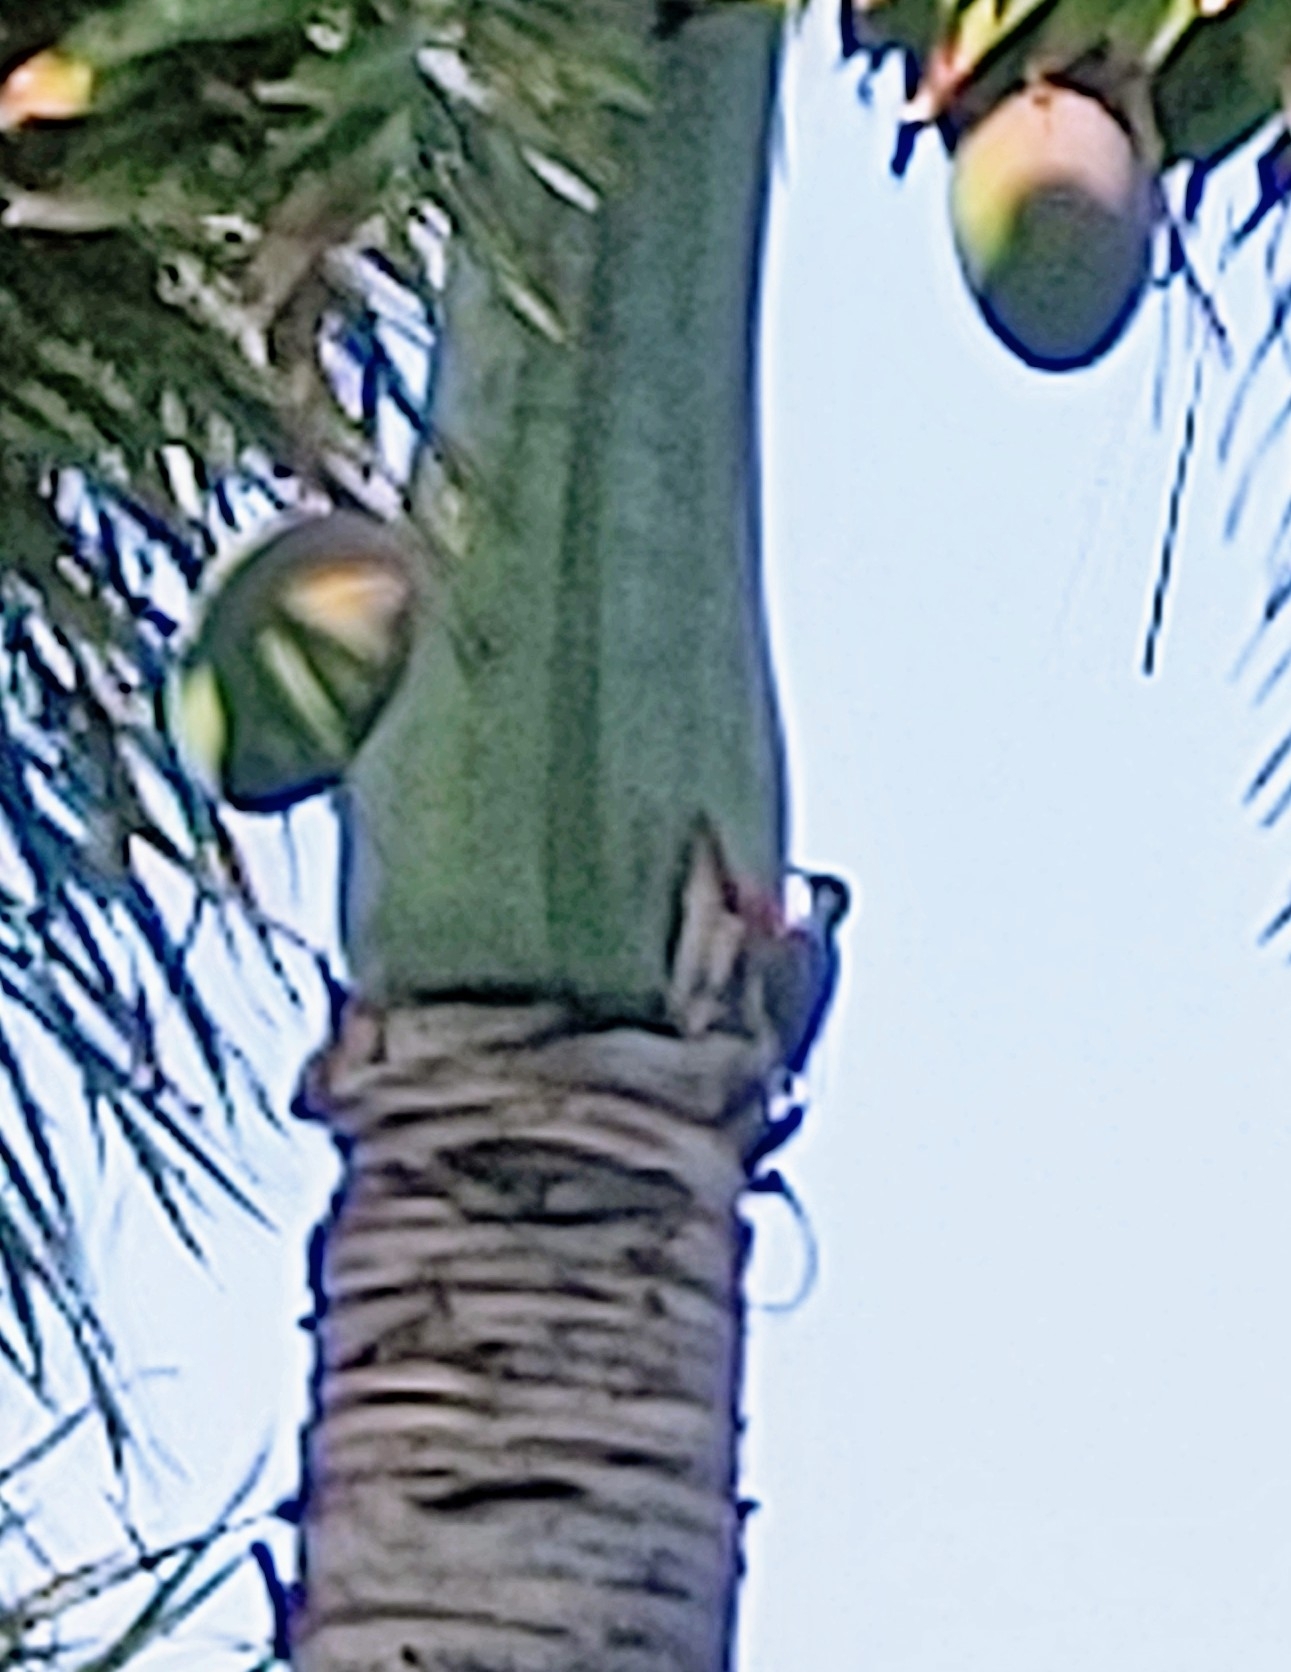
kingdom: Animalia
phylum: Chordata
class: Aves
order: Piciformes
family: Picidae
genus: Melanerpes
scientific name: Melanerpes carolinus
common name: Red-bellied woodpecker
